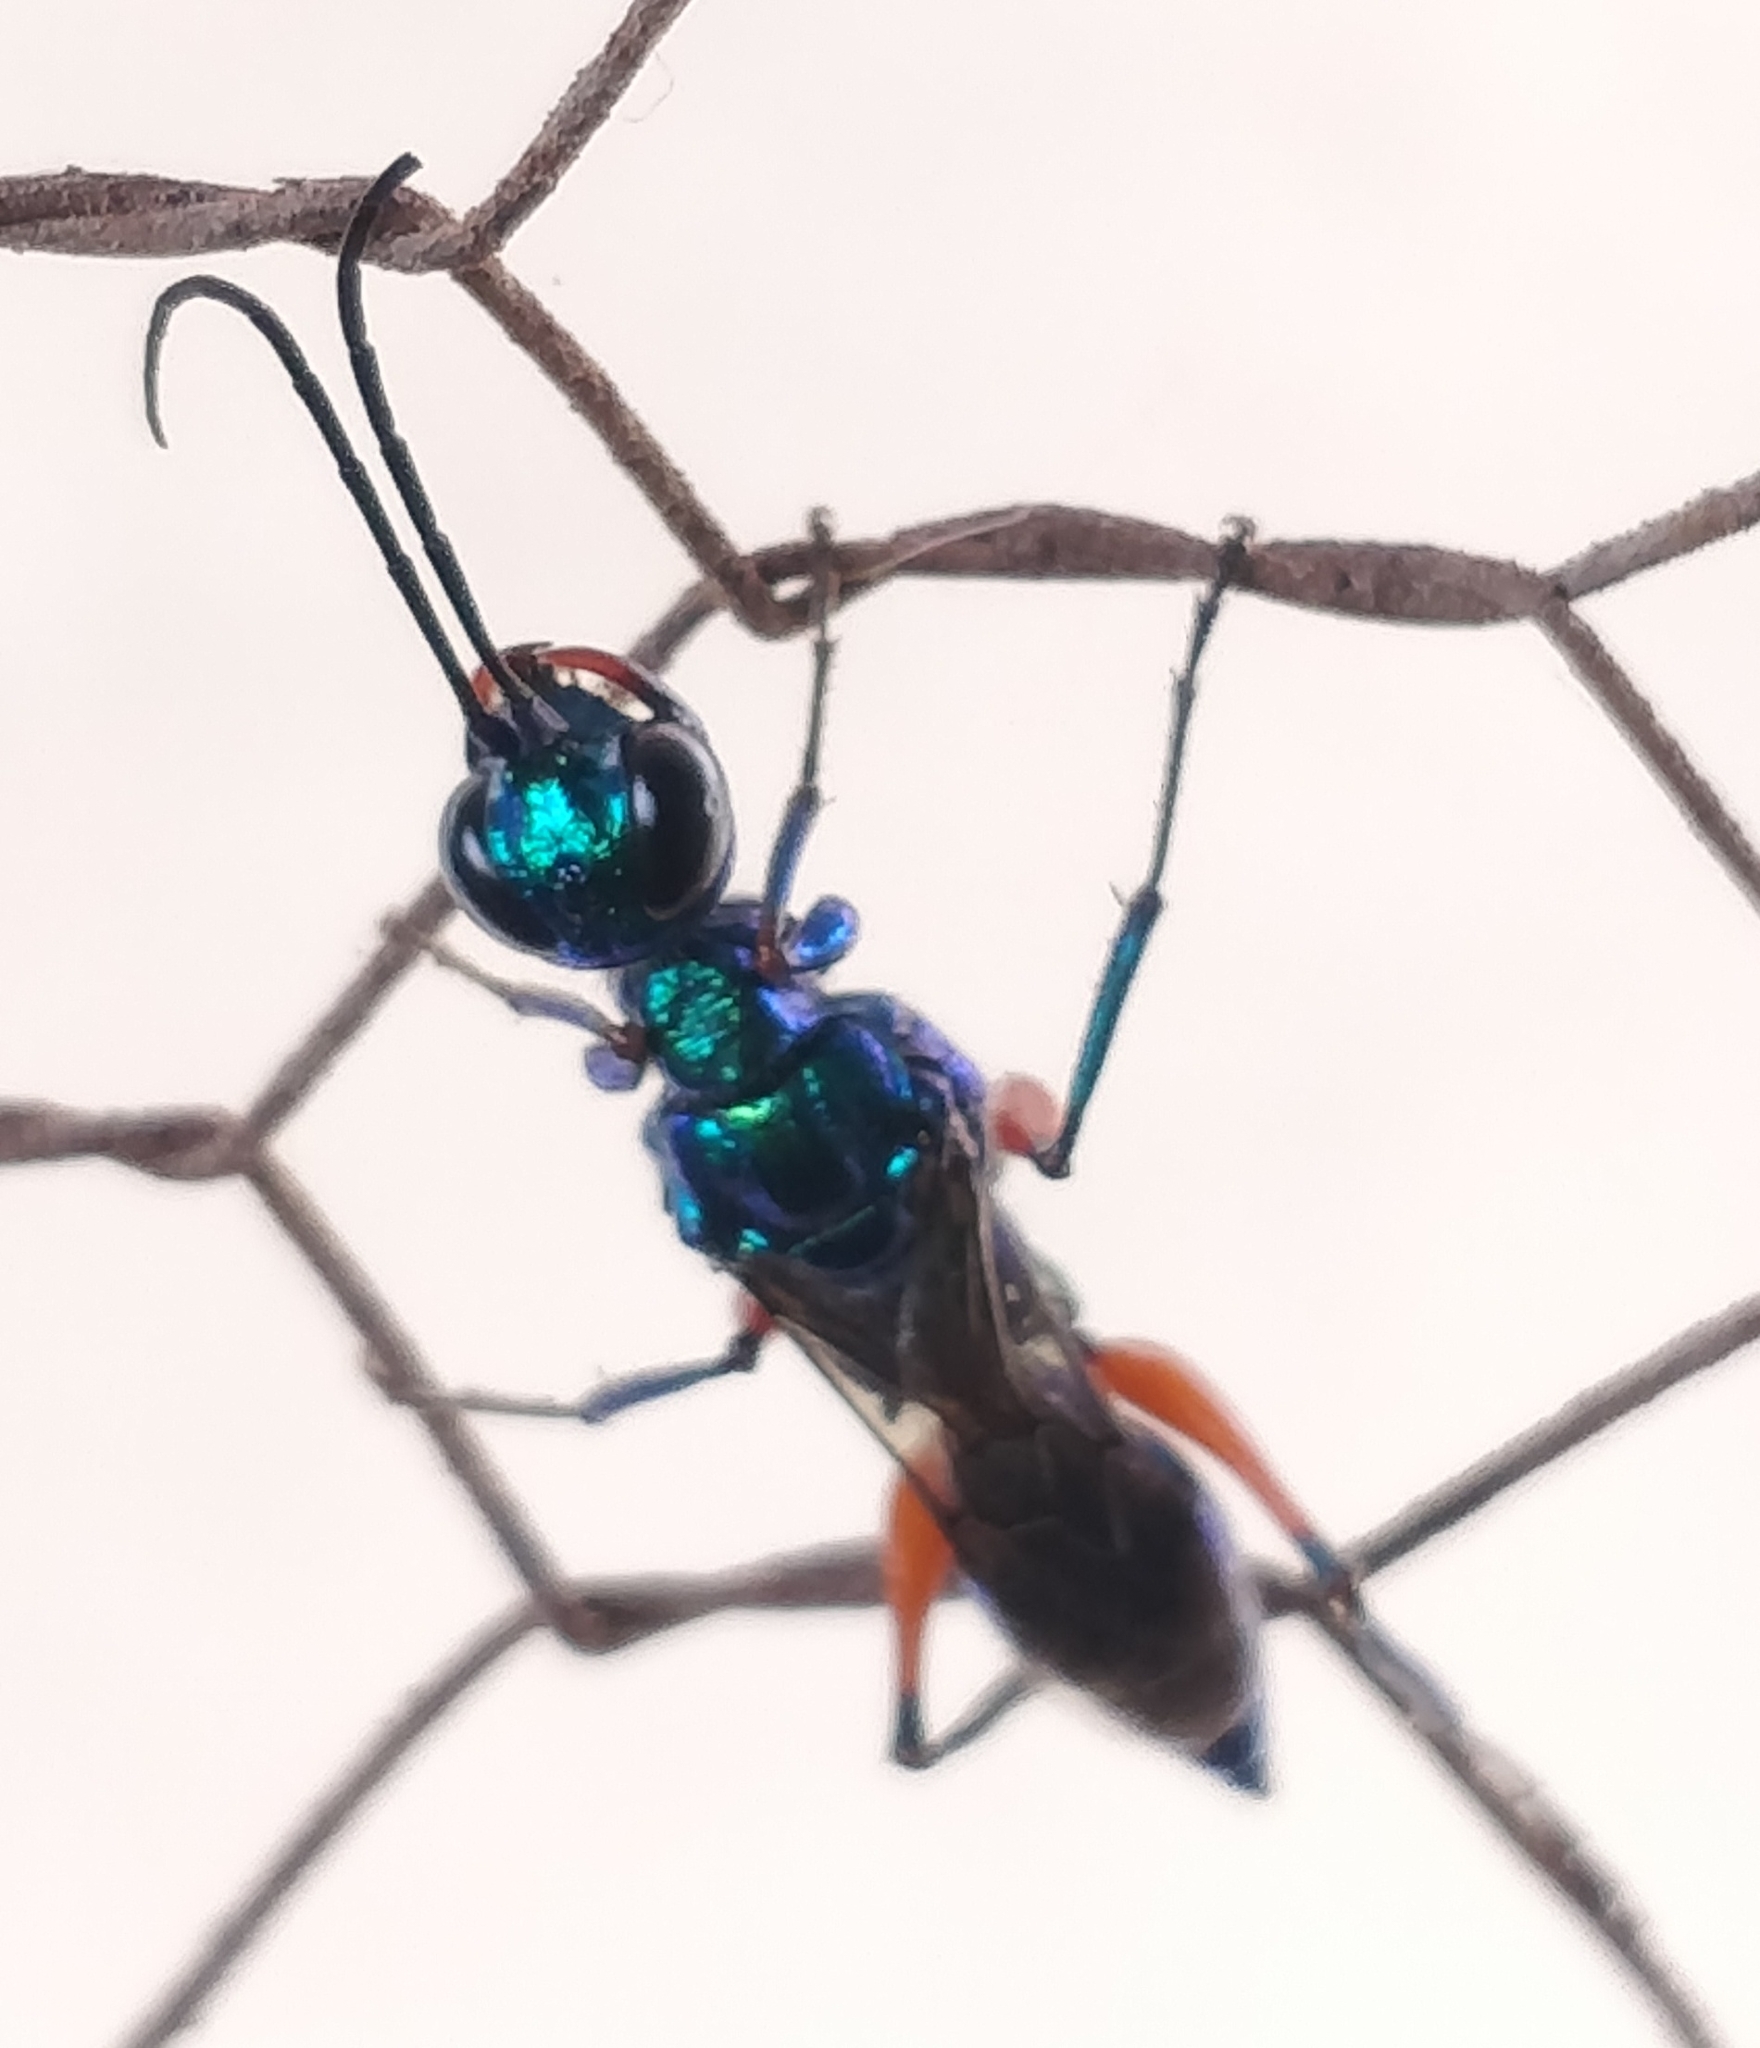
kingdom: Animalia
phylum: Arthropoda
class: Insecta
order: Hymenoptera
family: Ampulicidae
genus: Ampulex
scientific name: Ampulex compressa
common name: Emerald cockroach wasp
